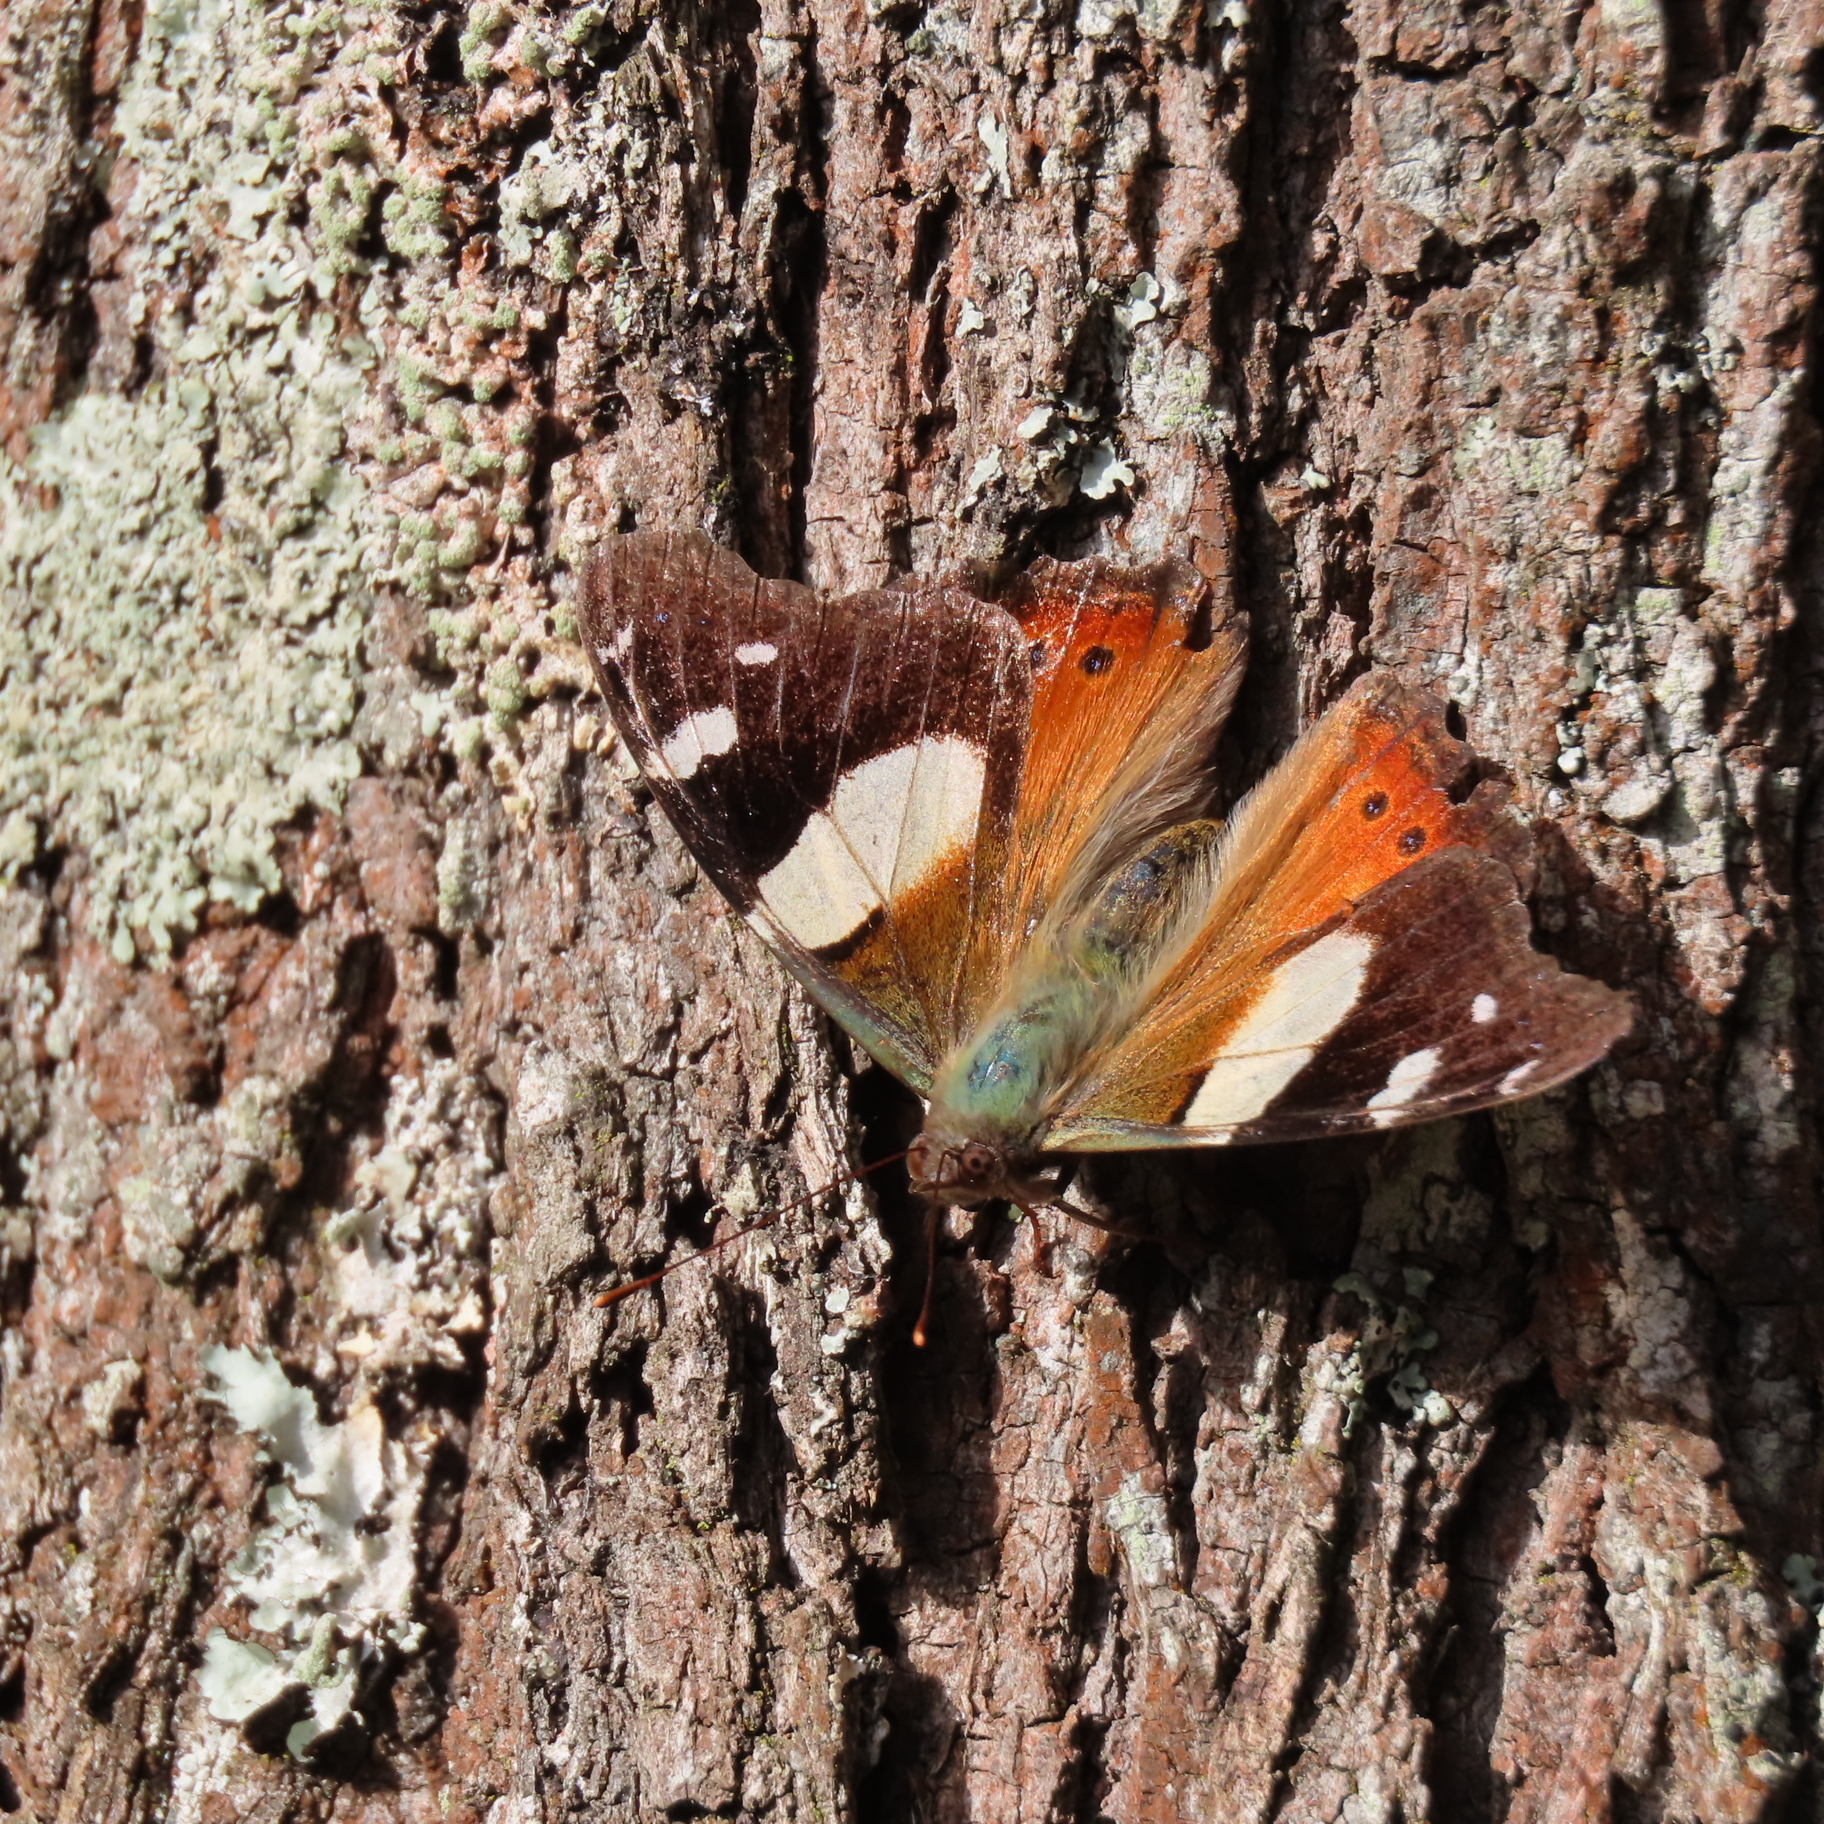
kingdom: Animalia
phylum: Arthropoda
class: Insecta
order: Lepidoptera
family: Nymphalidae
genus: Vanessa
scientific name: Vanessa itea
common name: Yellow admiral
